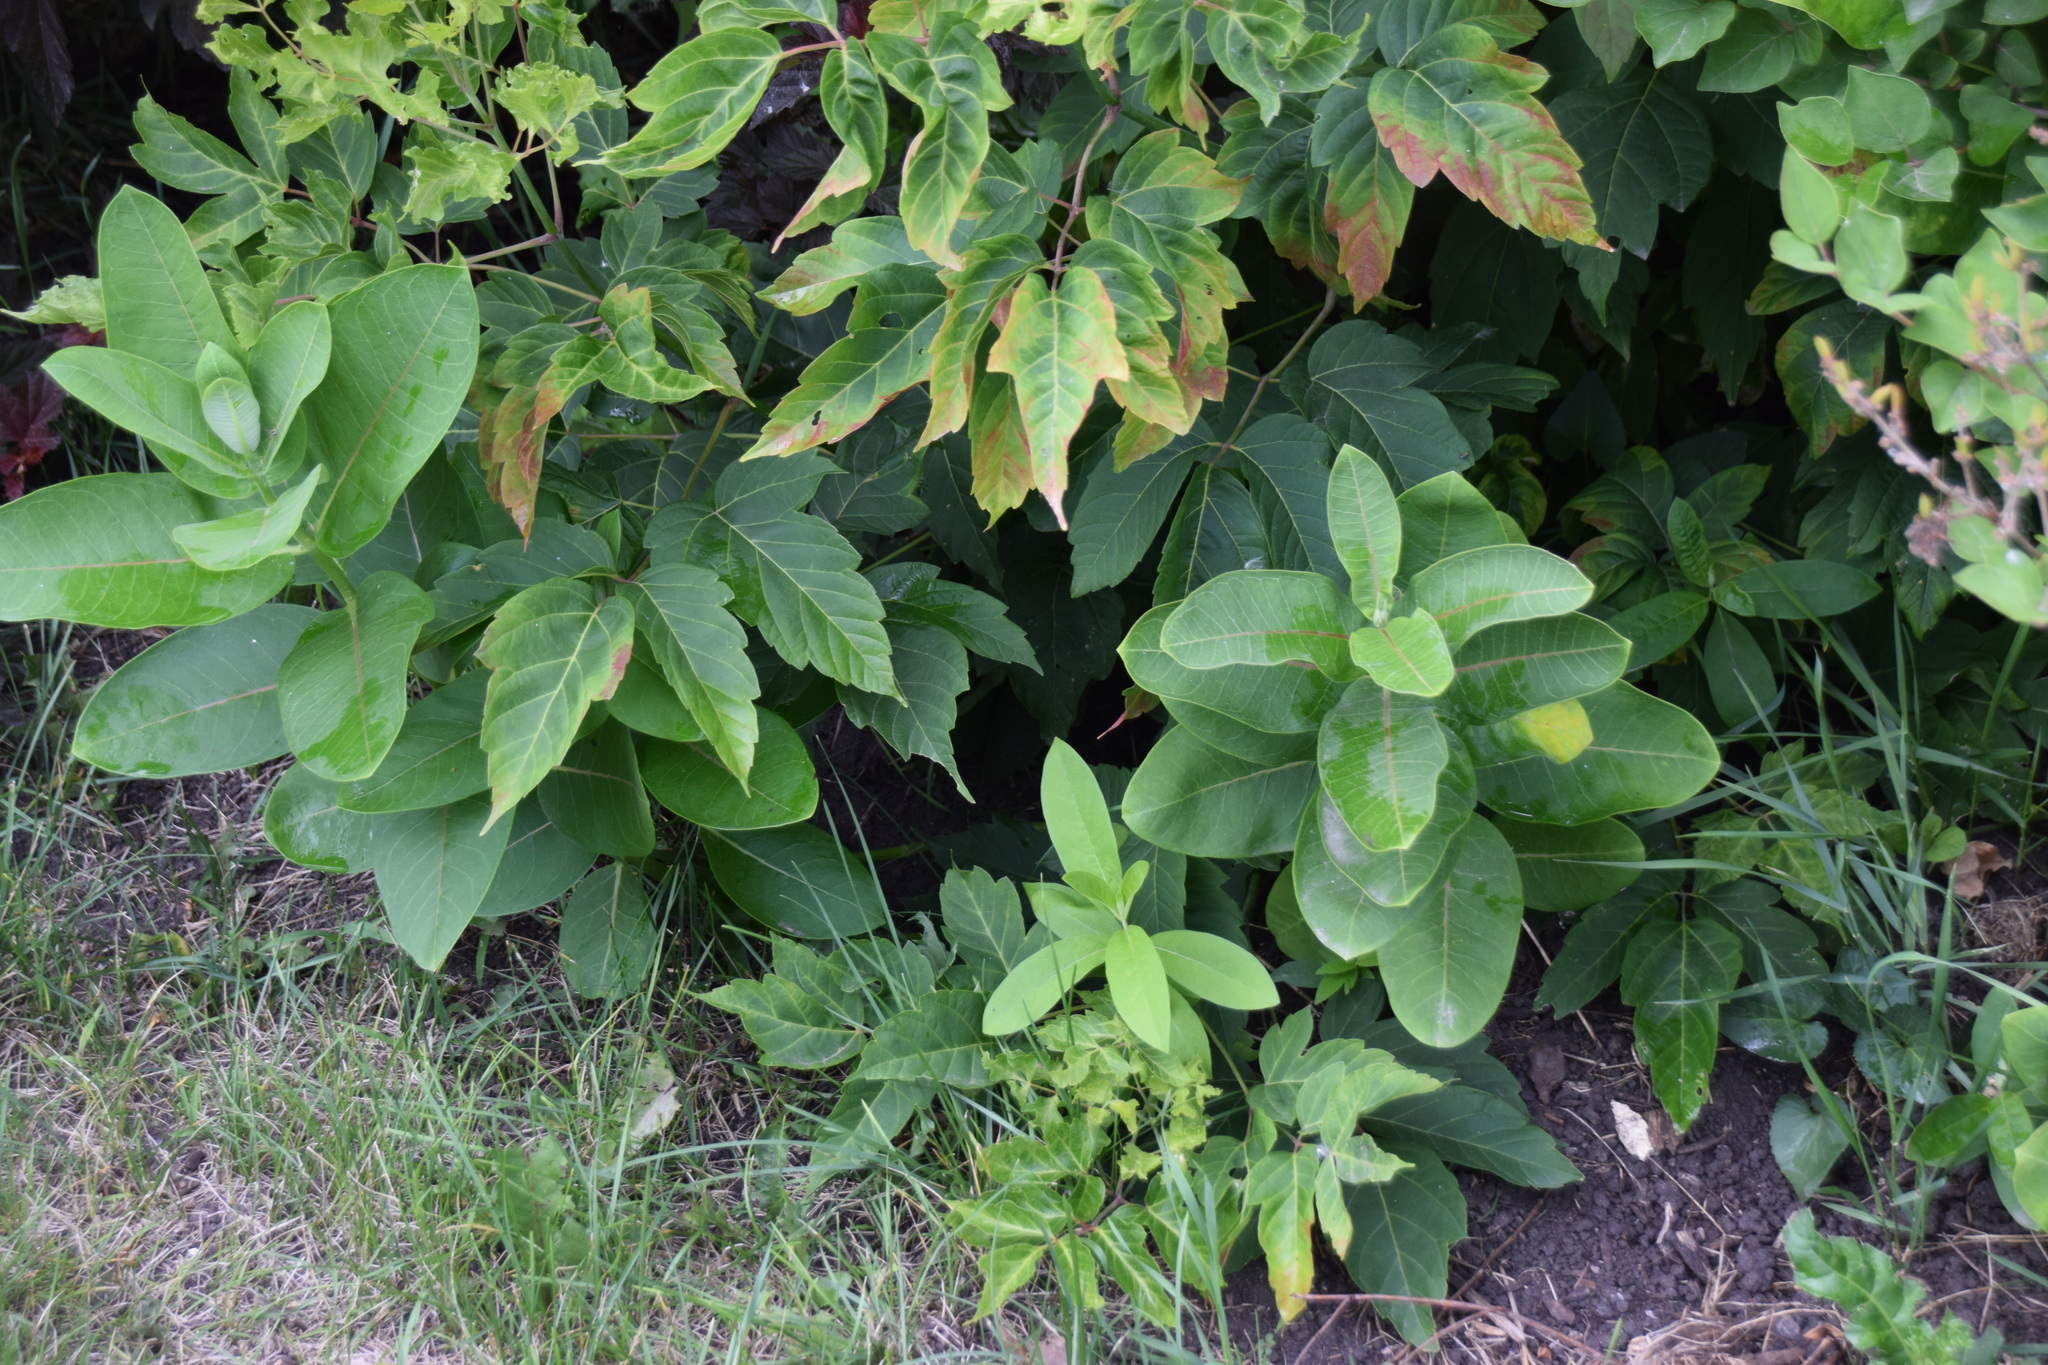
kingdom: Plantae
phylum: Tracheophyta
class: Magnoliopsida
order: Gentianales
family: Apocynaceae
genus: Asclepias
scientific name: Asclepias syriaca
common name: Common milkweed
